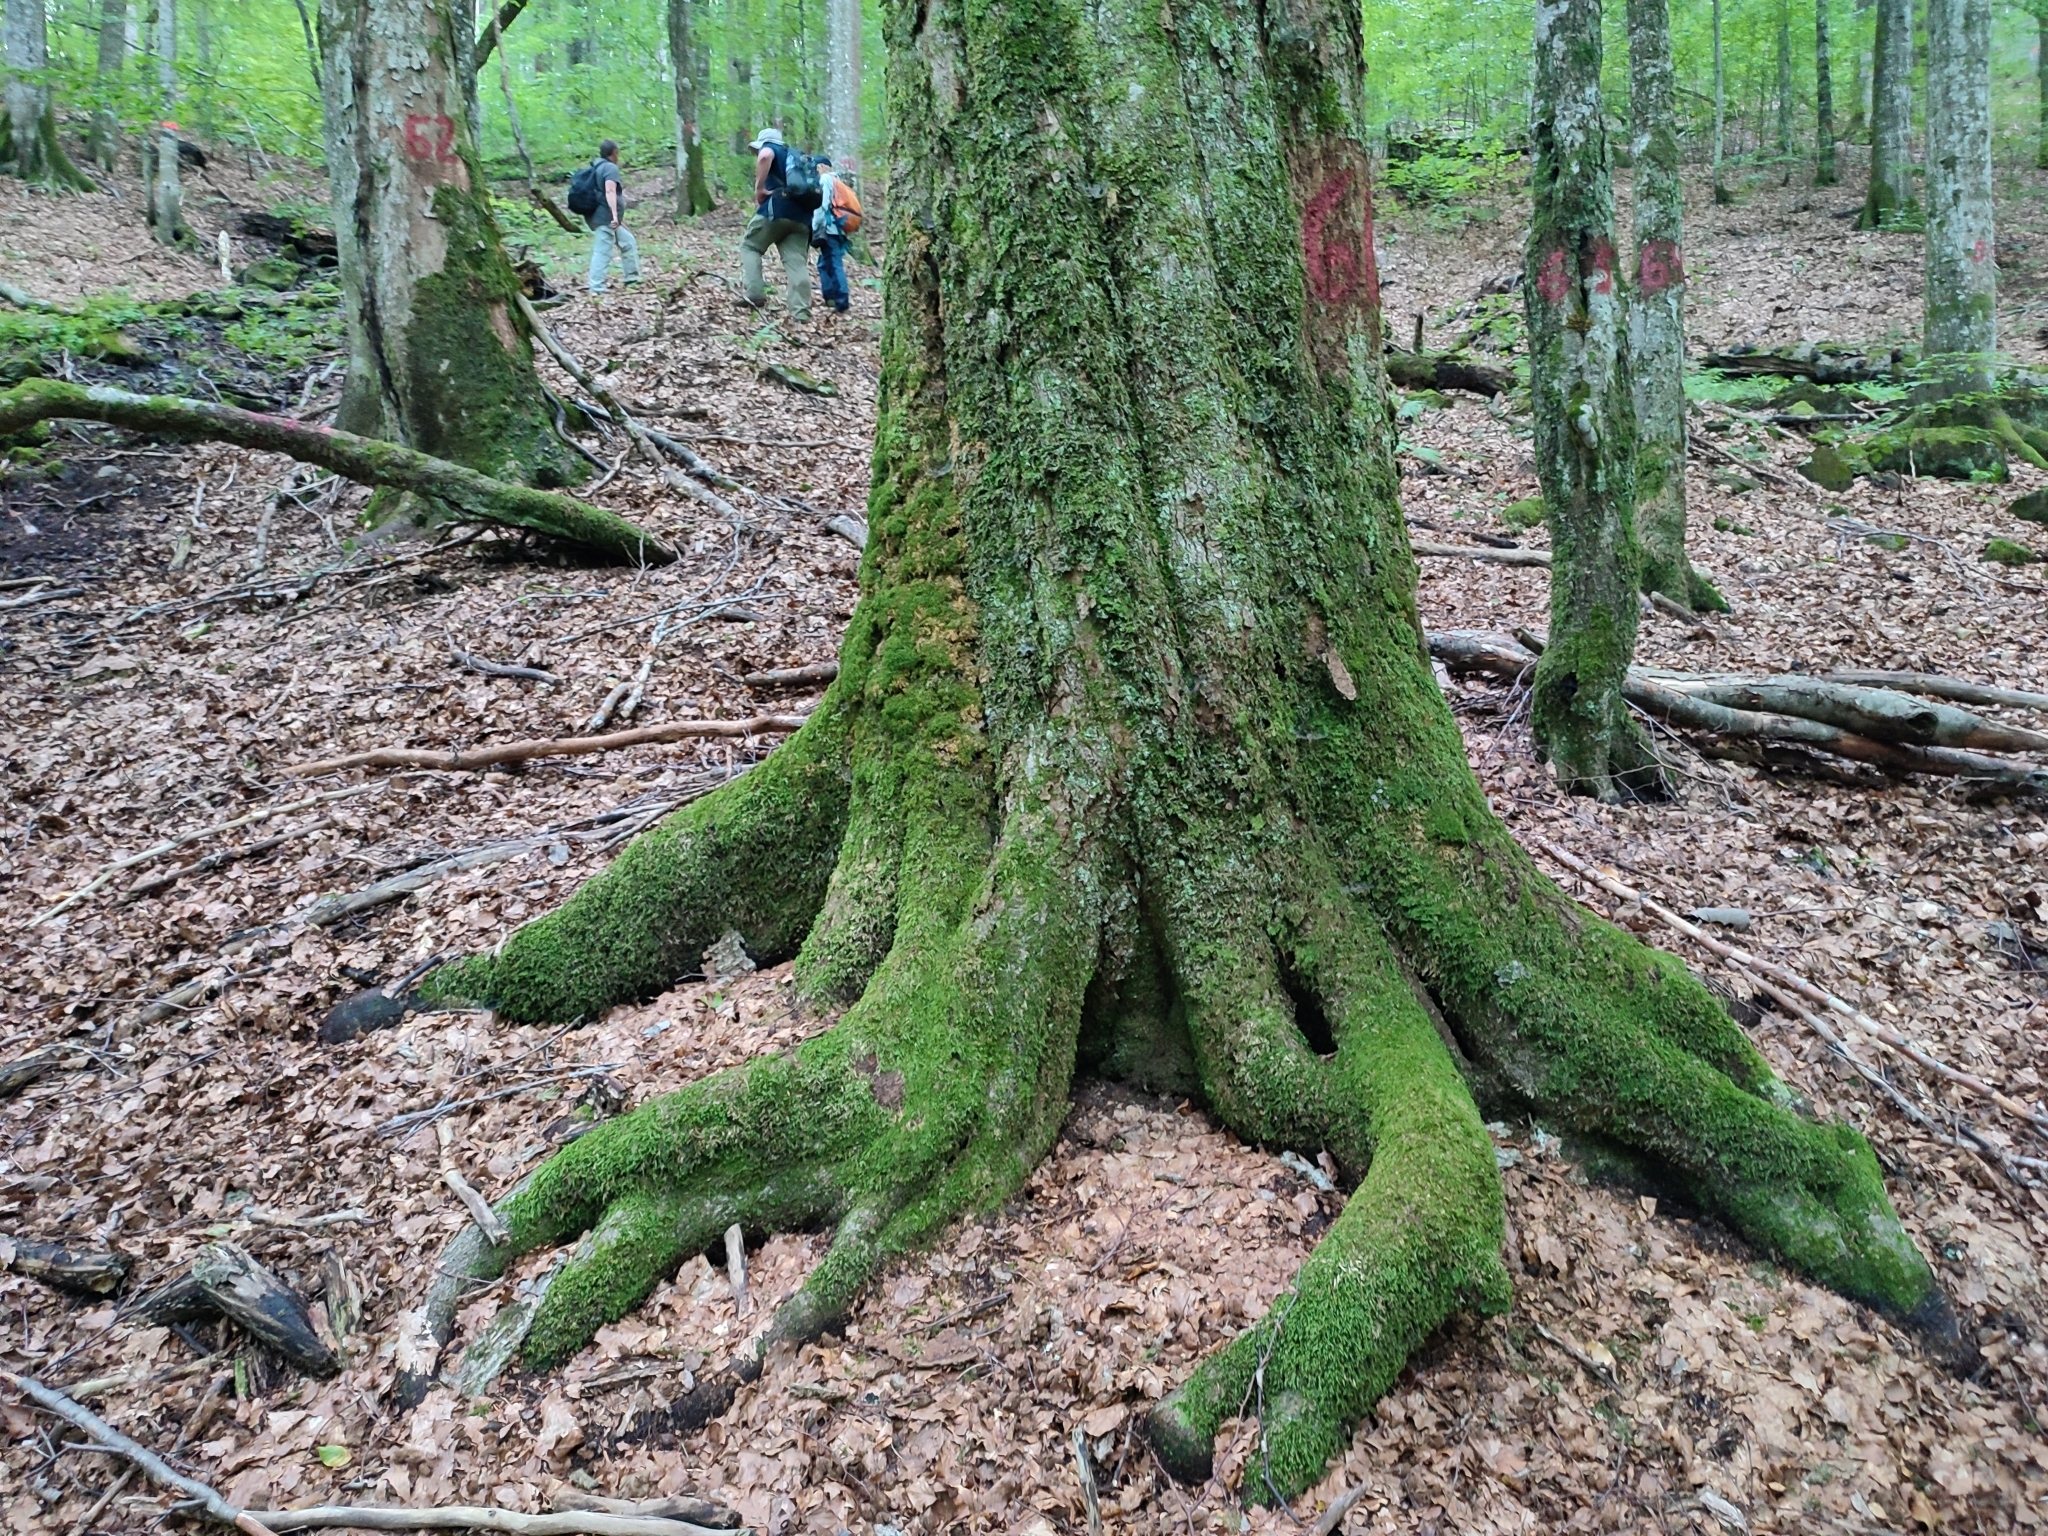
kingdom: Plantae
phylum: Tracheophyta
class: Magnoliopsida
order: Fagales
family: Fagaceae
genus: Fagus
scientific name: Fagus sylvatica
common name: Beech
